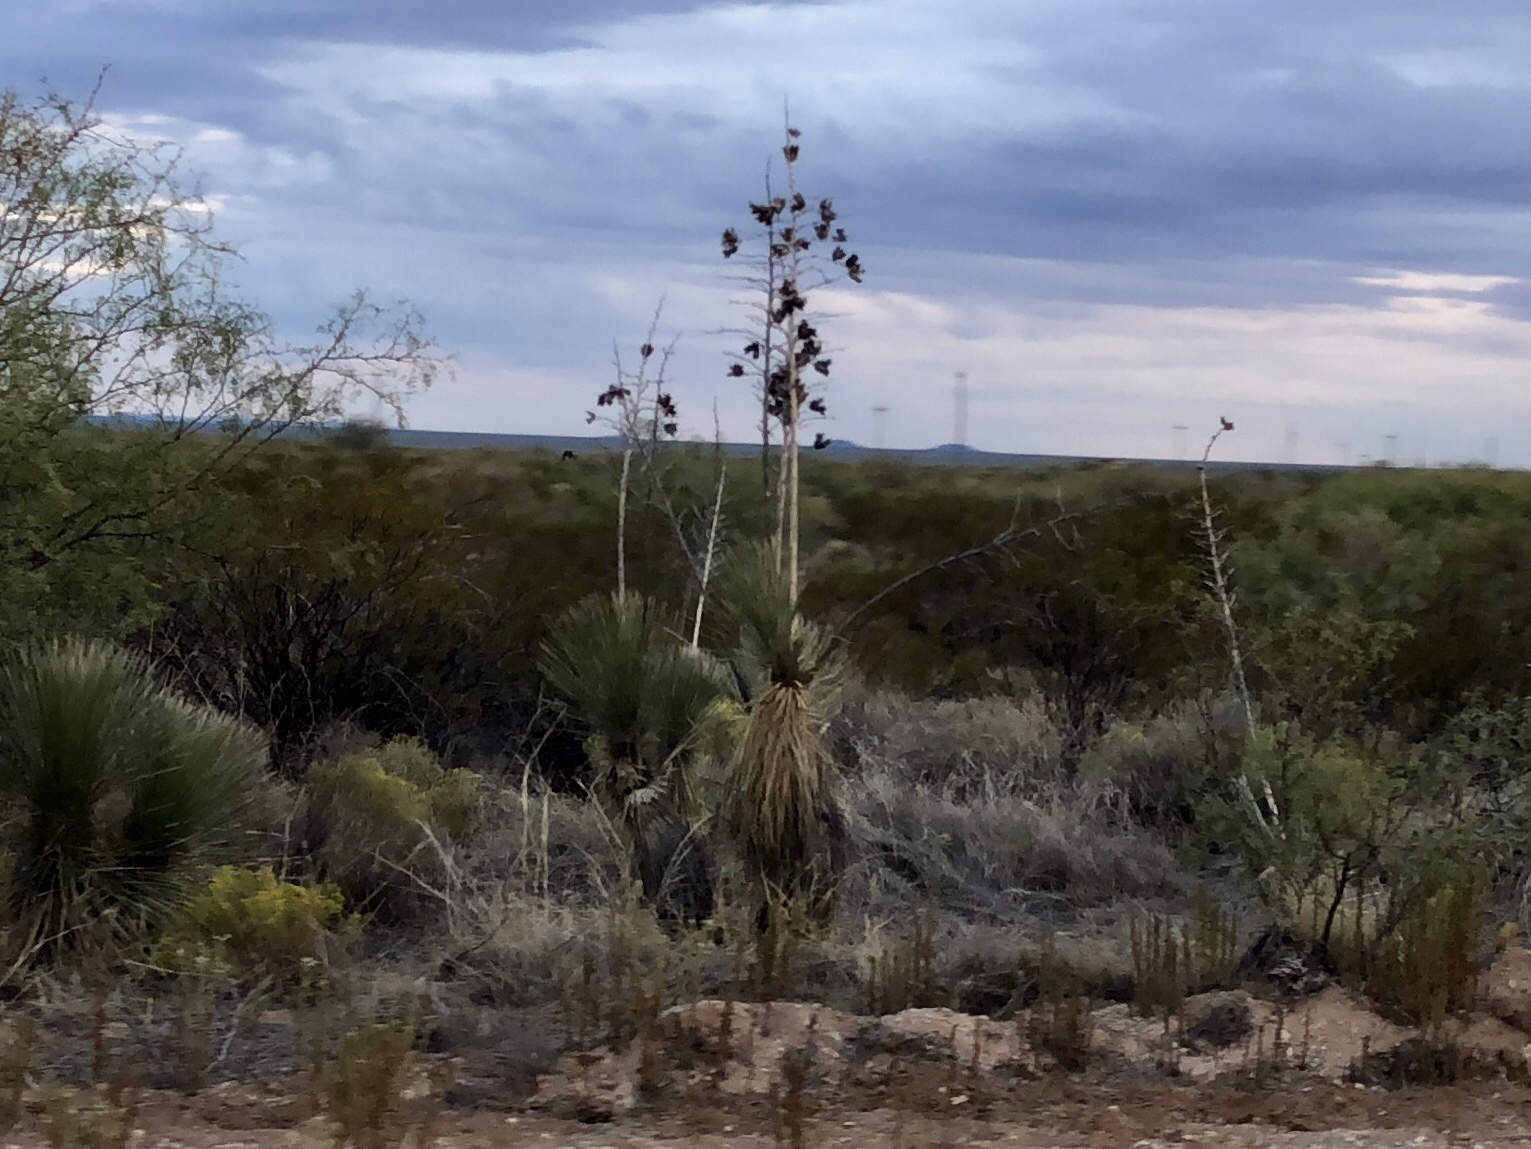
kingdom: Plantae
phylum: Tracheophyta
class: Liliopsida
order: Asparagales
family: Asparagaceae
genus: Yucca
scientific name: Yucca elata
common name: Palmella
